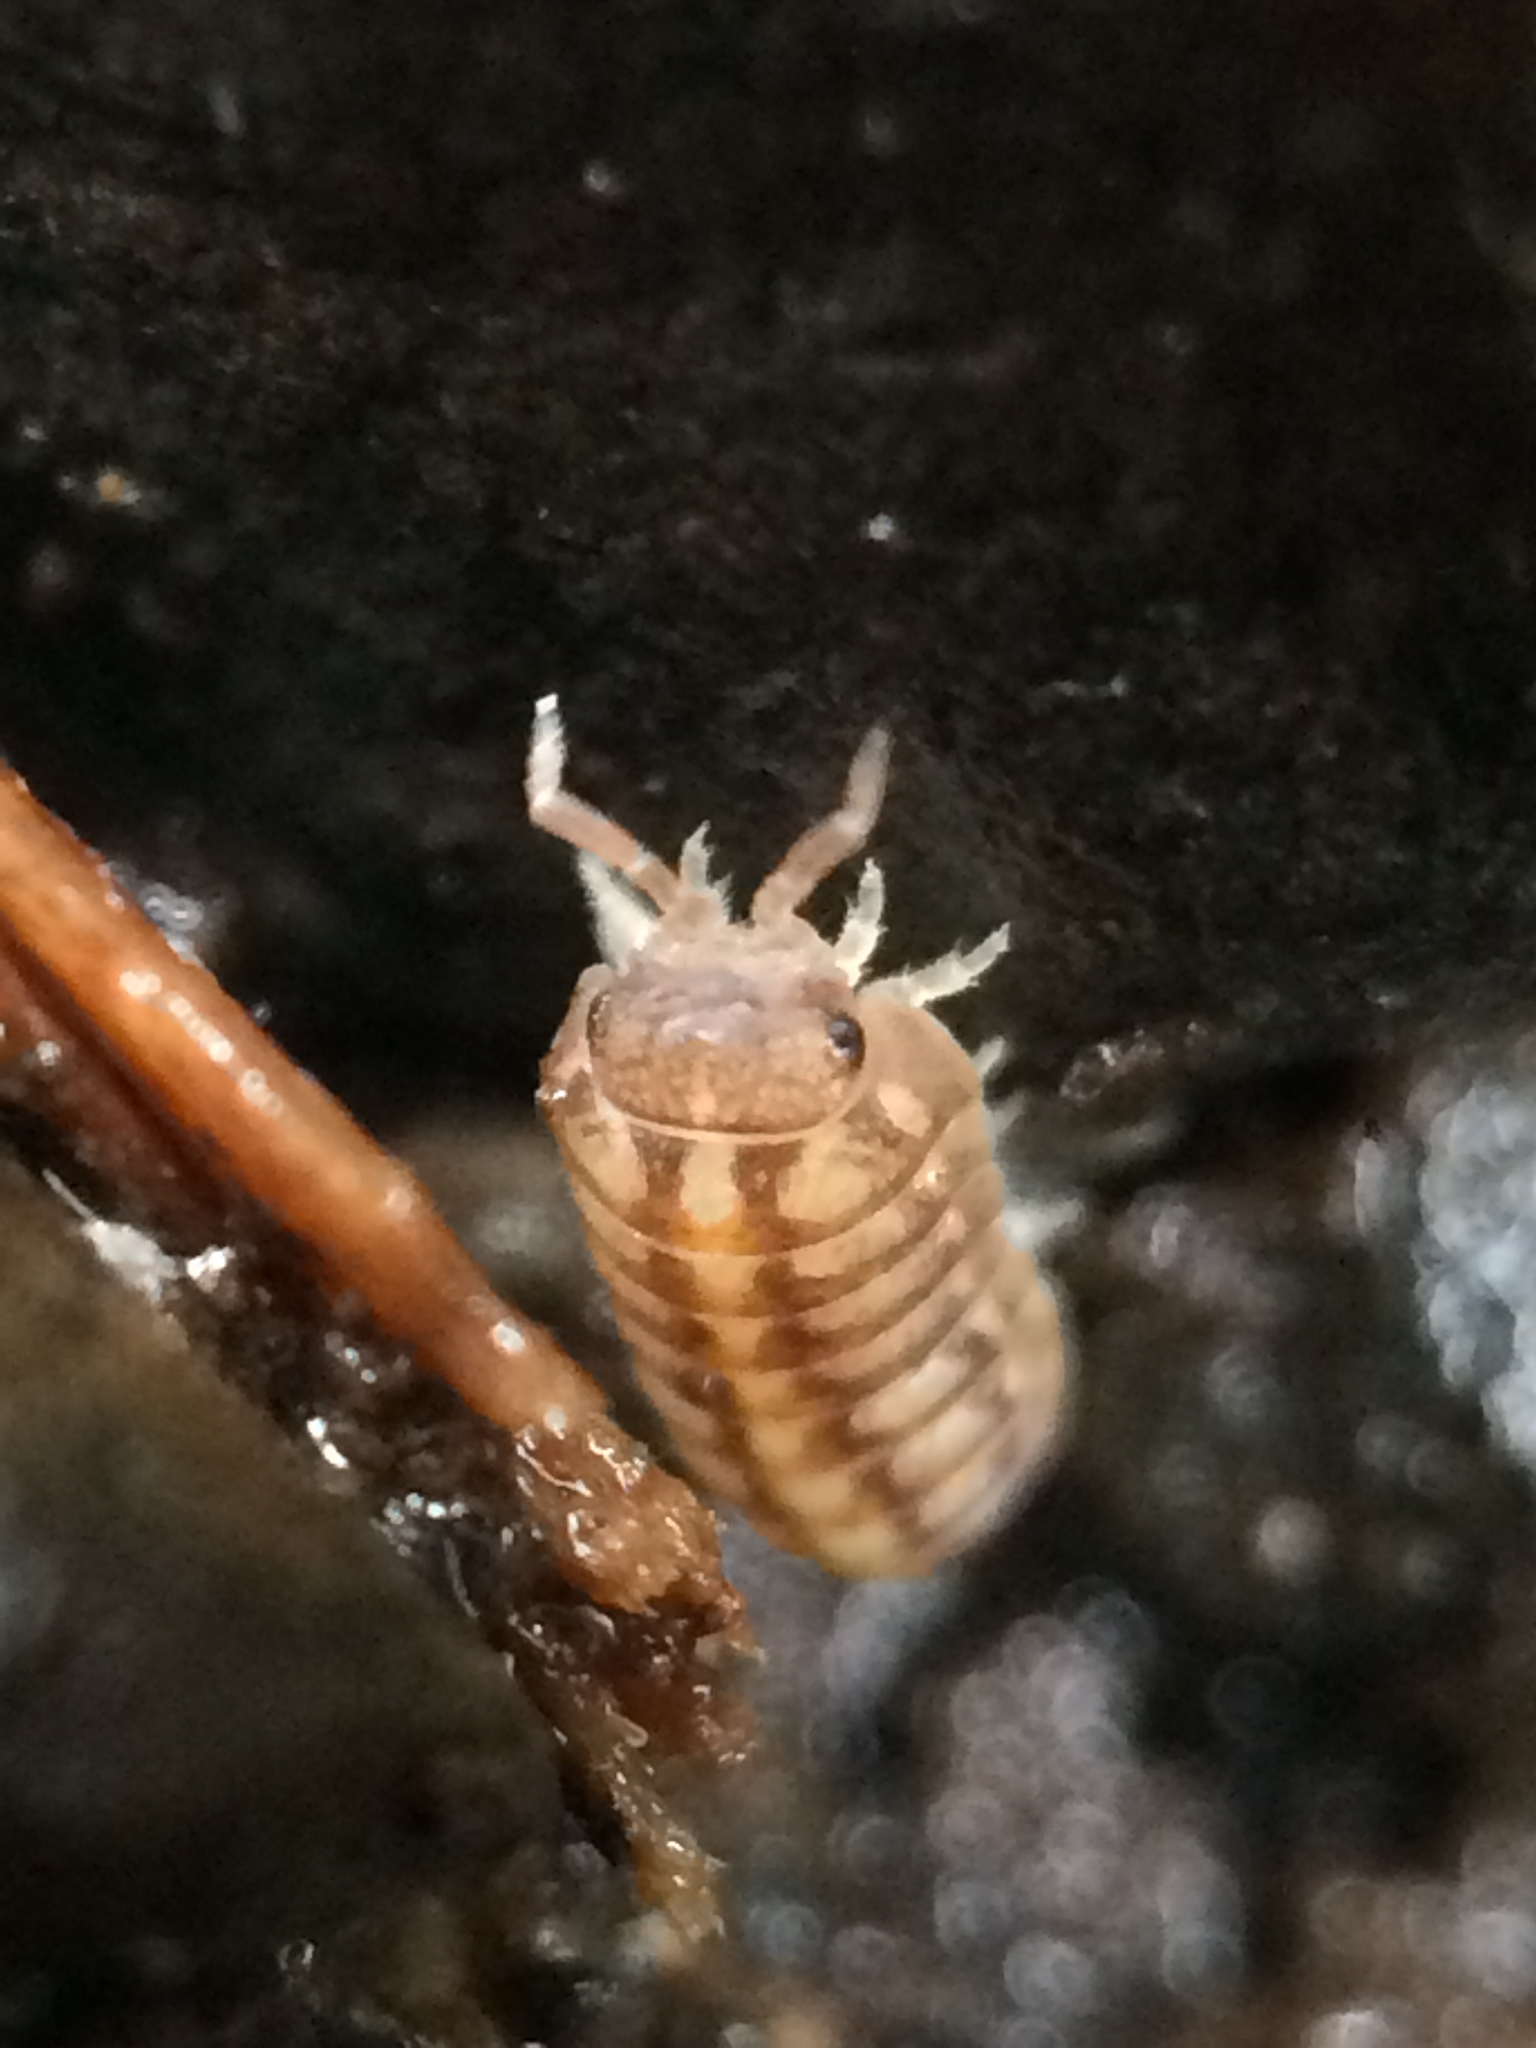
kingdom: Animalia
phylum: Arthropoda
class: Malacostraca
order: Isopoda
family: Armadillidiidae
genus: Armadillidium
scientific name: Armadillidium vulgare
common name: Common pill woodlouse
